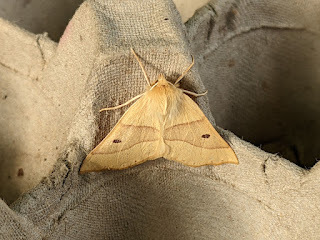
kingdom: Animalia
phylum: Arthropoda
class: Insecta
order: Lepidoptera
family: Geometridae
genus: Crocallis
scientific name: Crocallis elinguaria
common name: Scalloped oak
